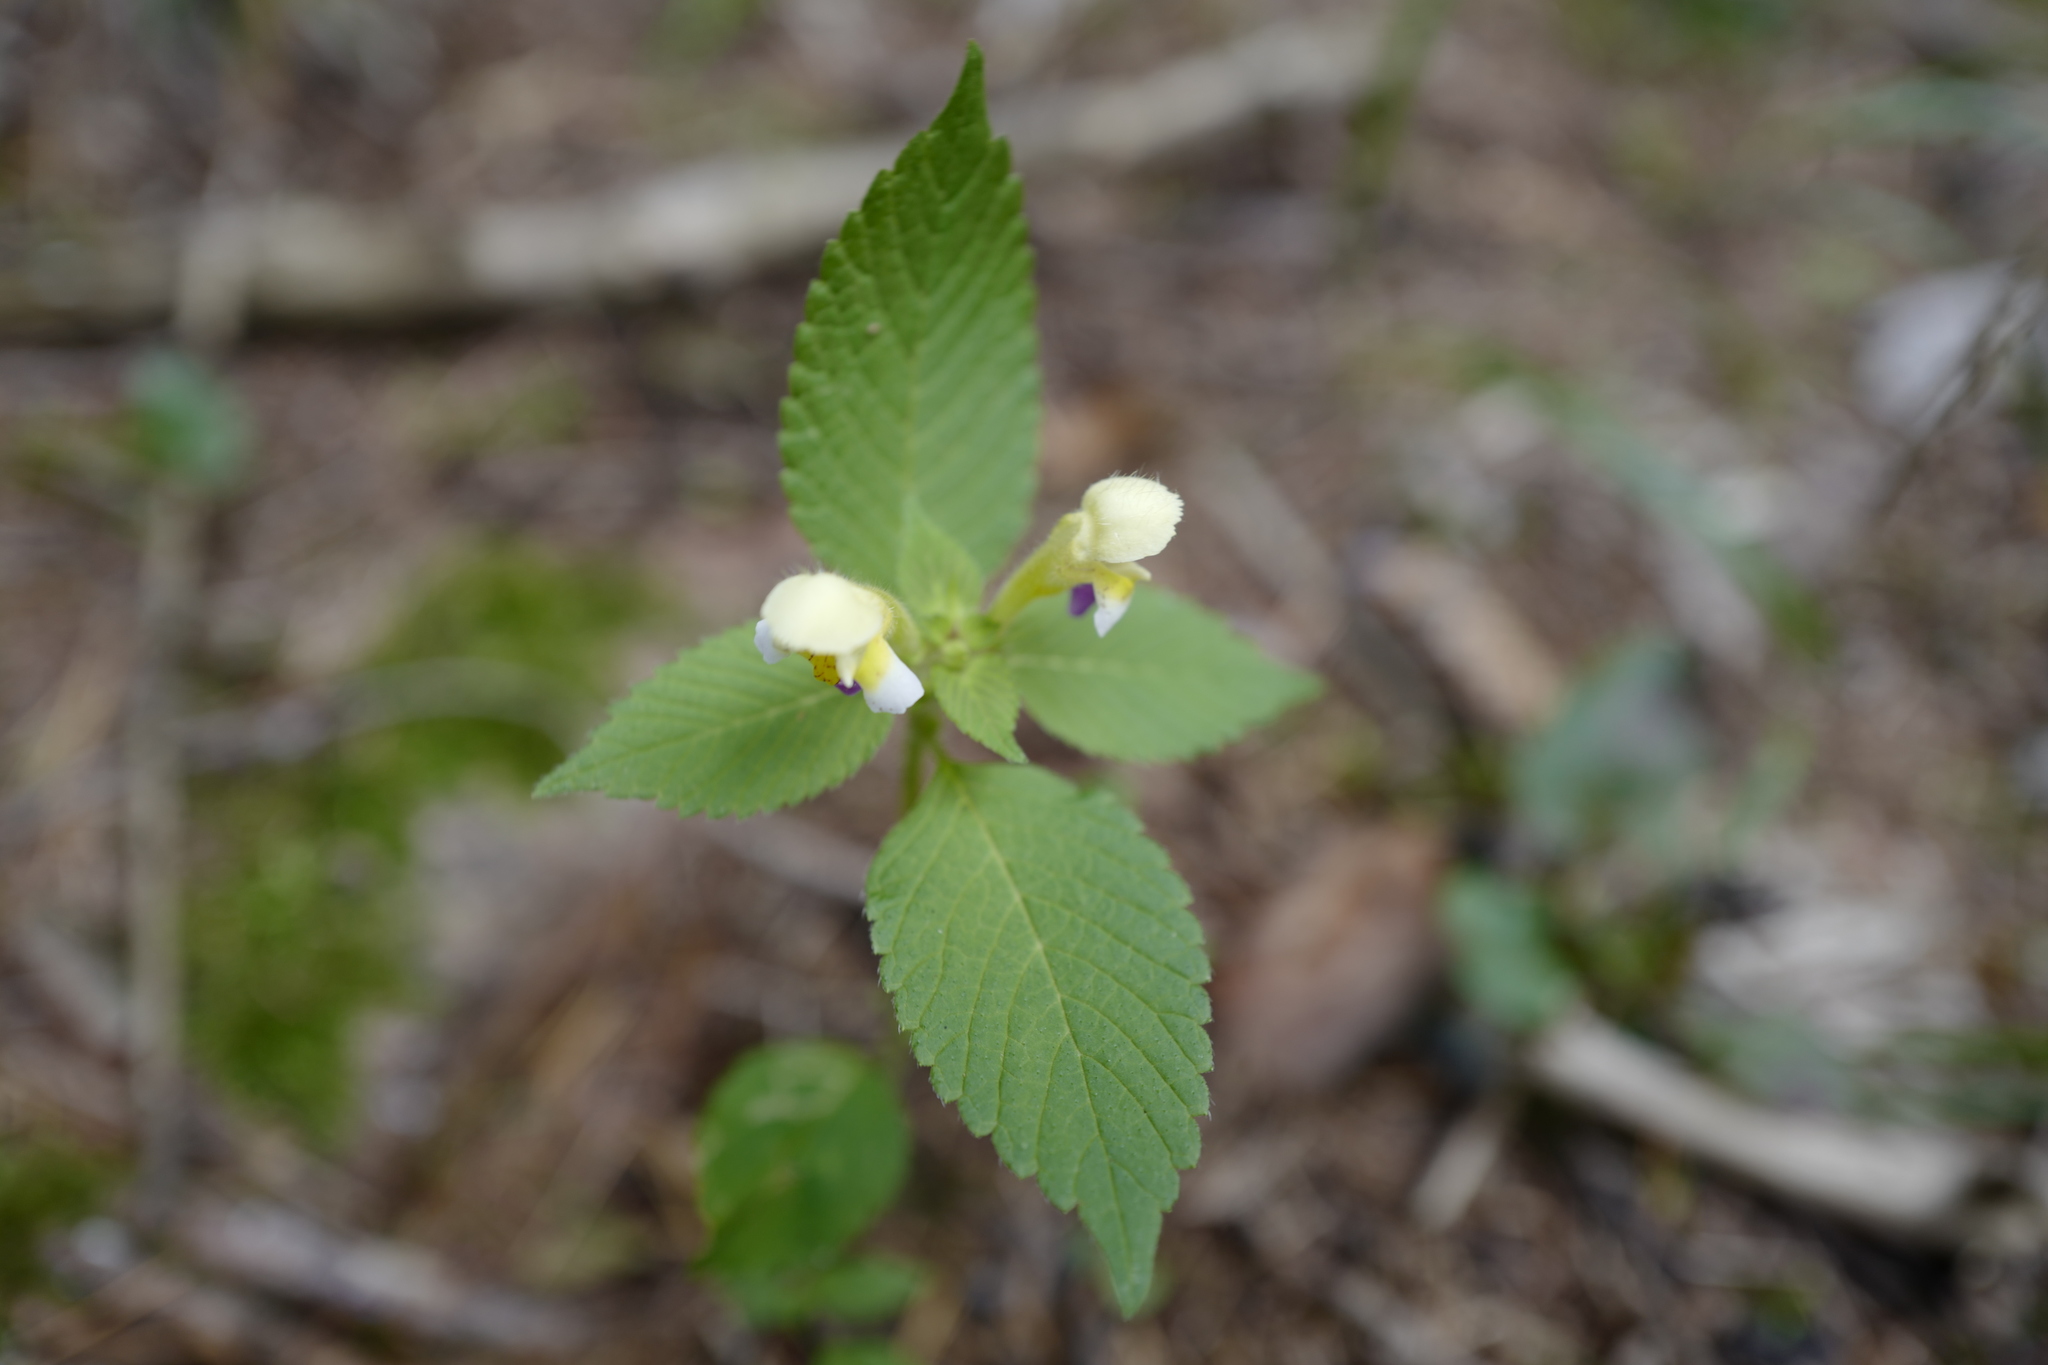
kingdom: Plantae
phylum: Tracheophyta
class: Magnoliopsida
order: Lamiales
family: Lamiaceae
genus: Galeopsis
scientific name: Galeopsis speciosa
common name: Large-flowered hemp-nettle
